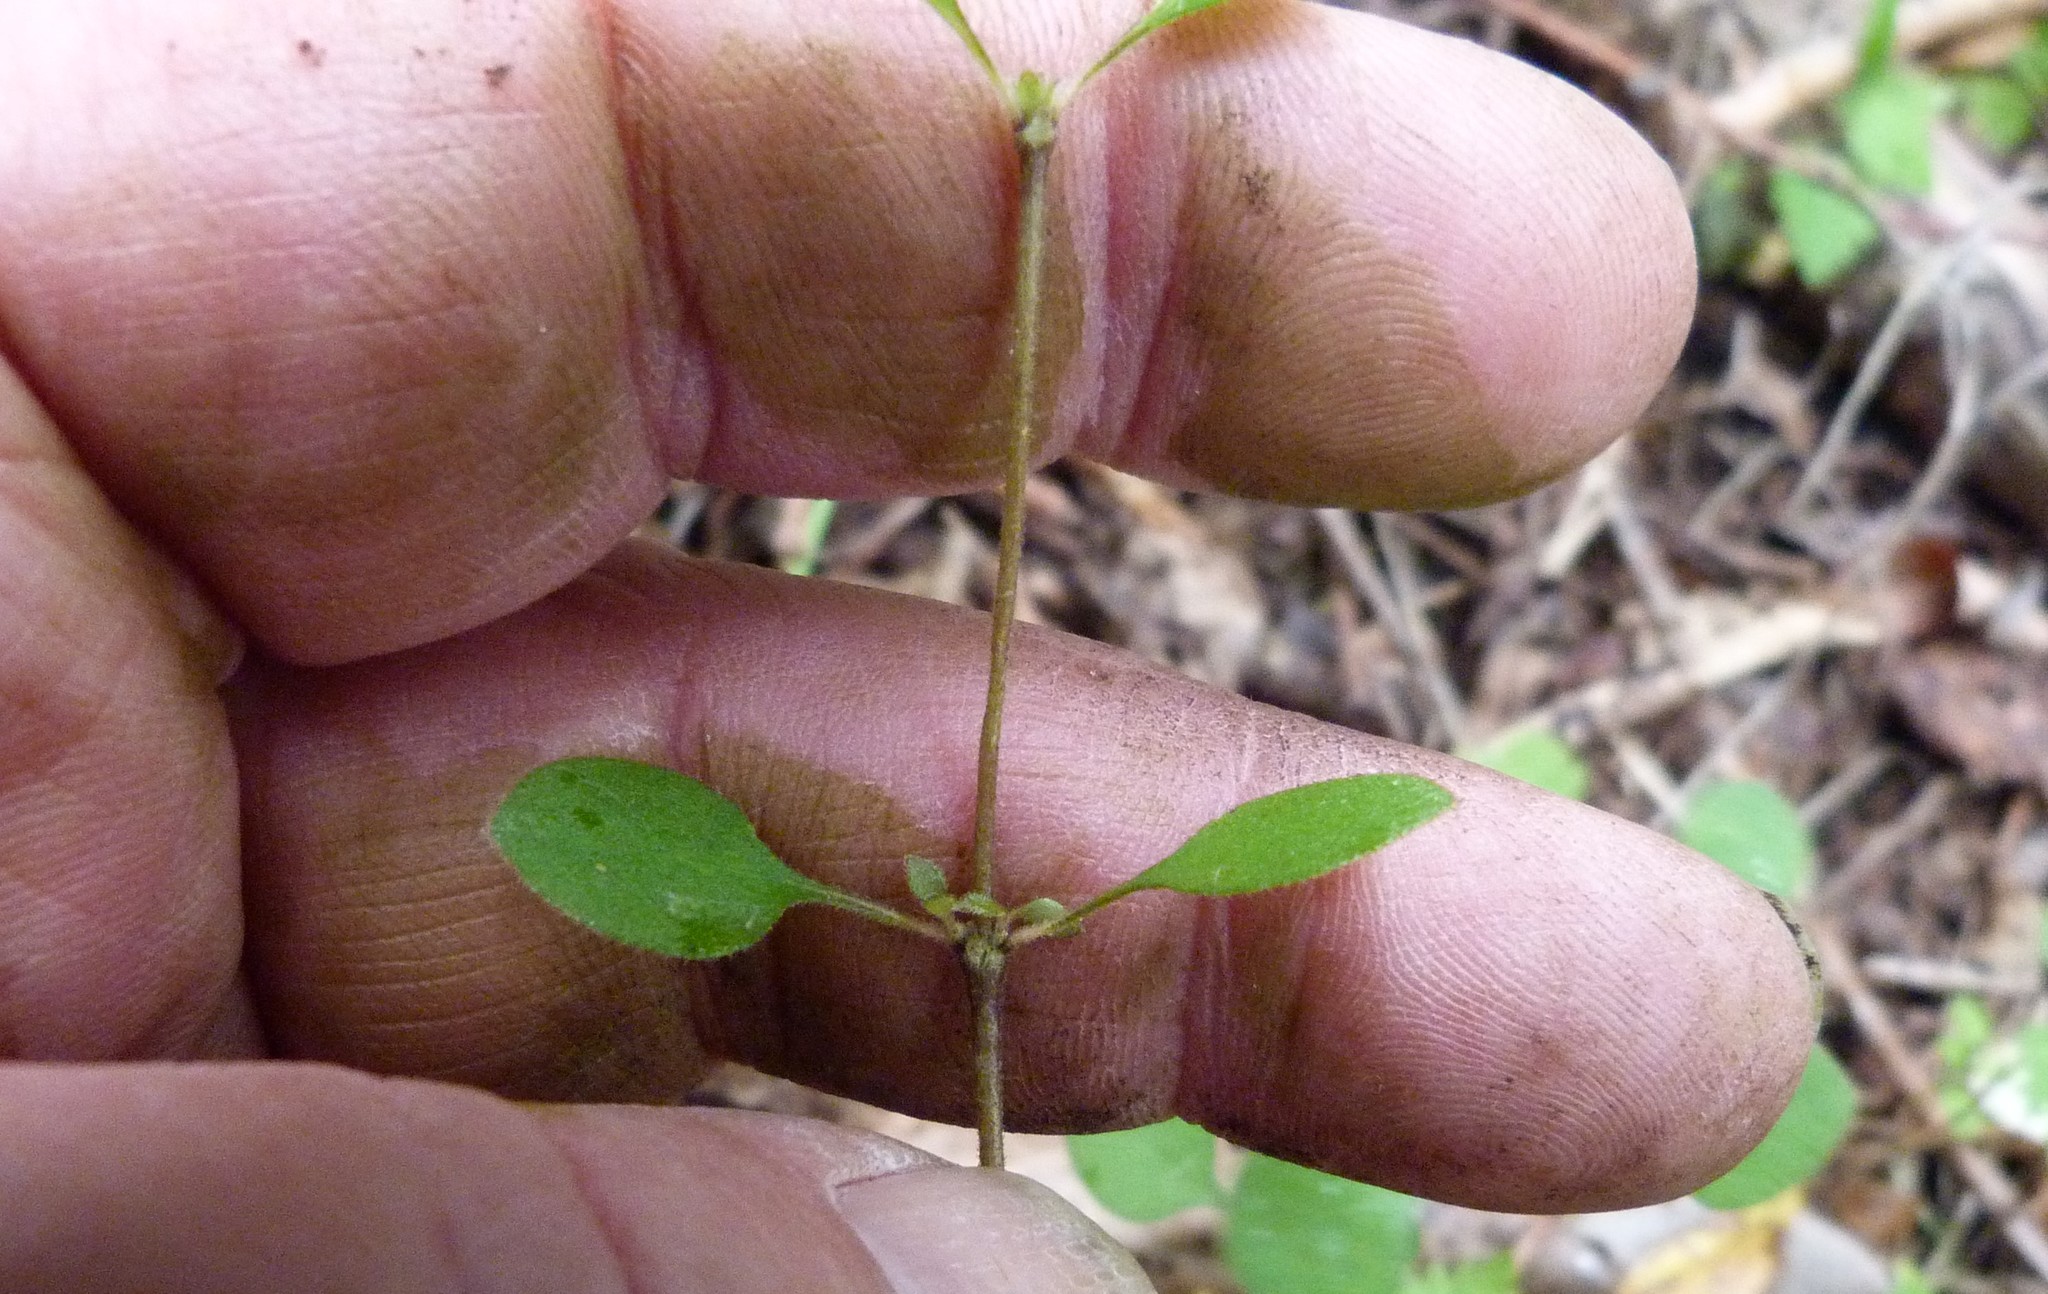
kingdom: Plantae
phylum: Tracheophyta
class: Magnoliopsida
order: Gentianales
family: Rubiaceae
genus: Coprosma
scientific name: Coprosma rotundifolia
